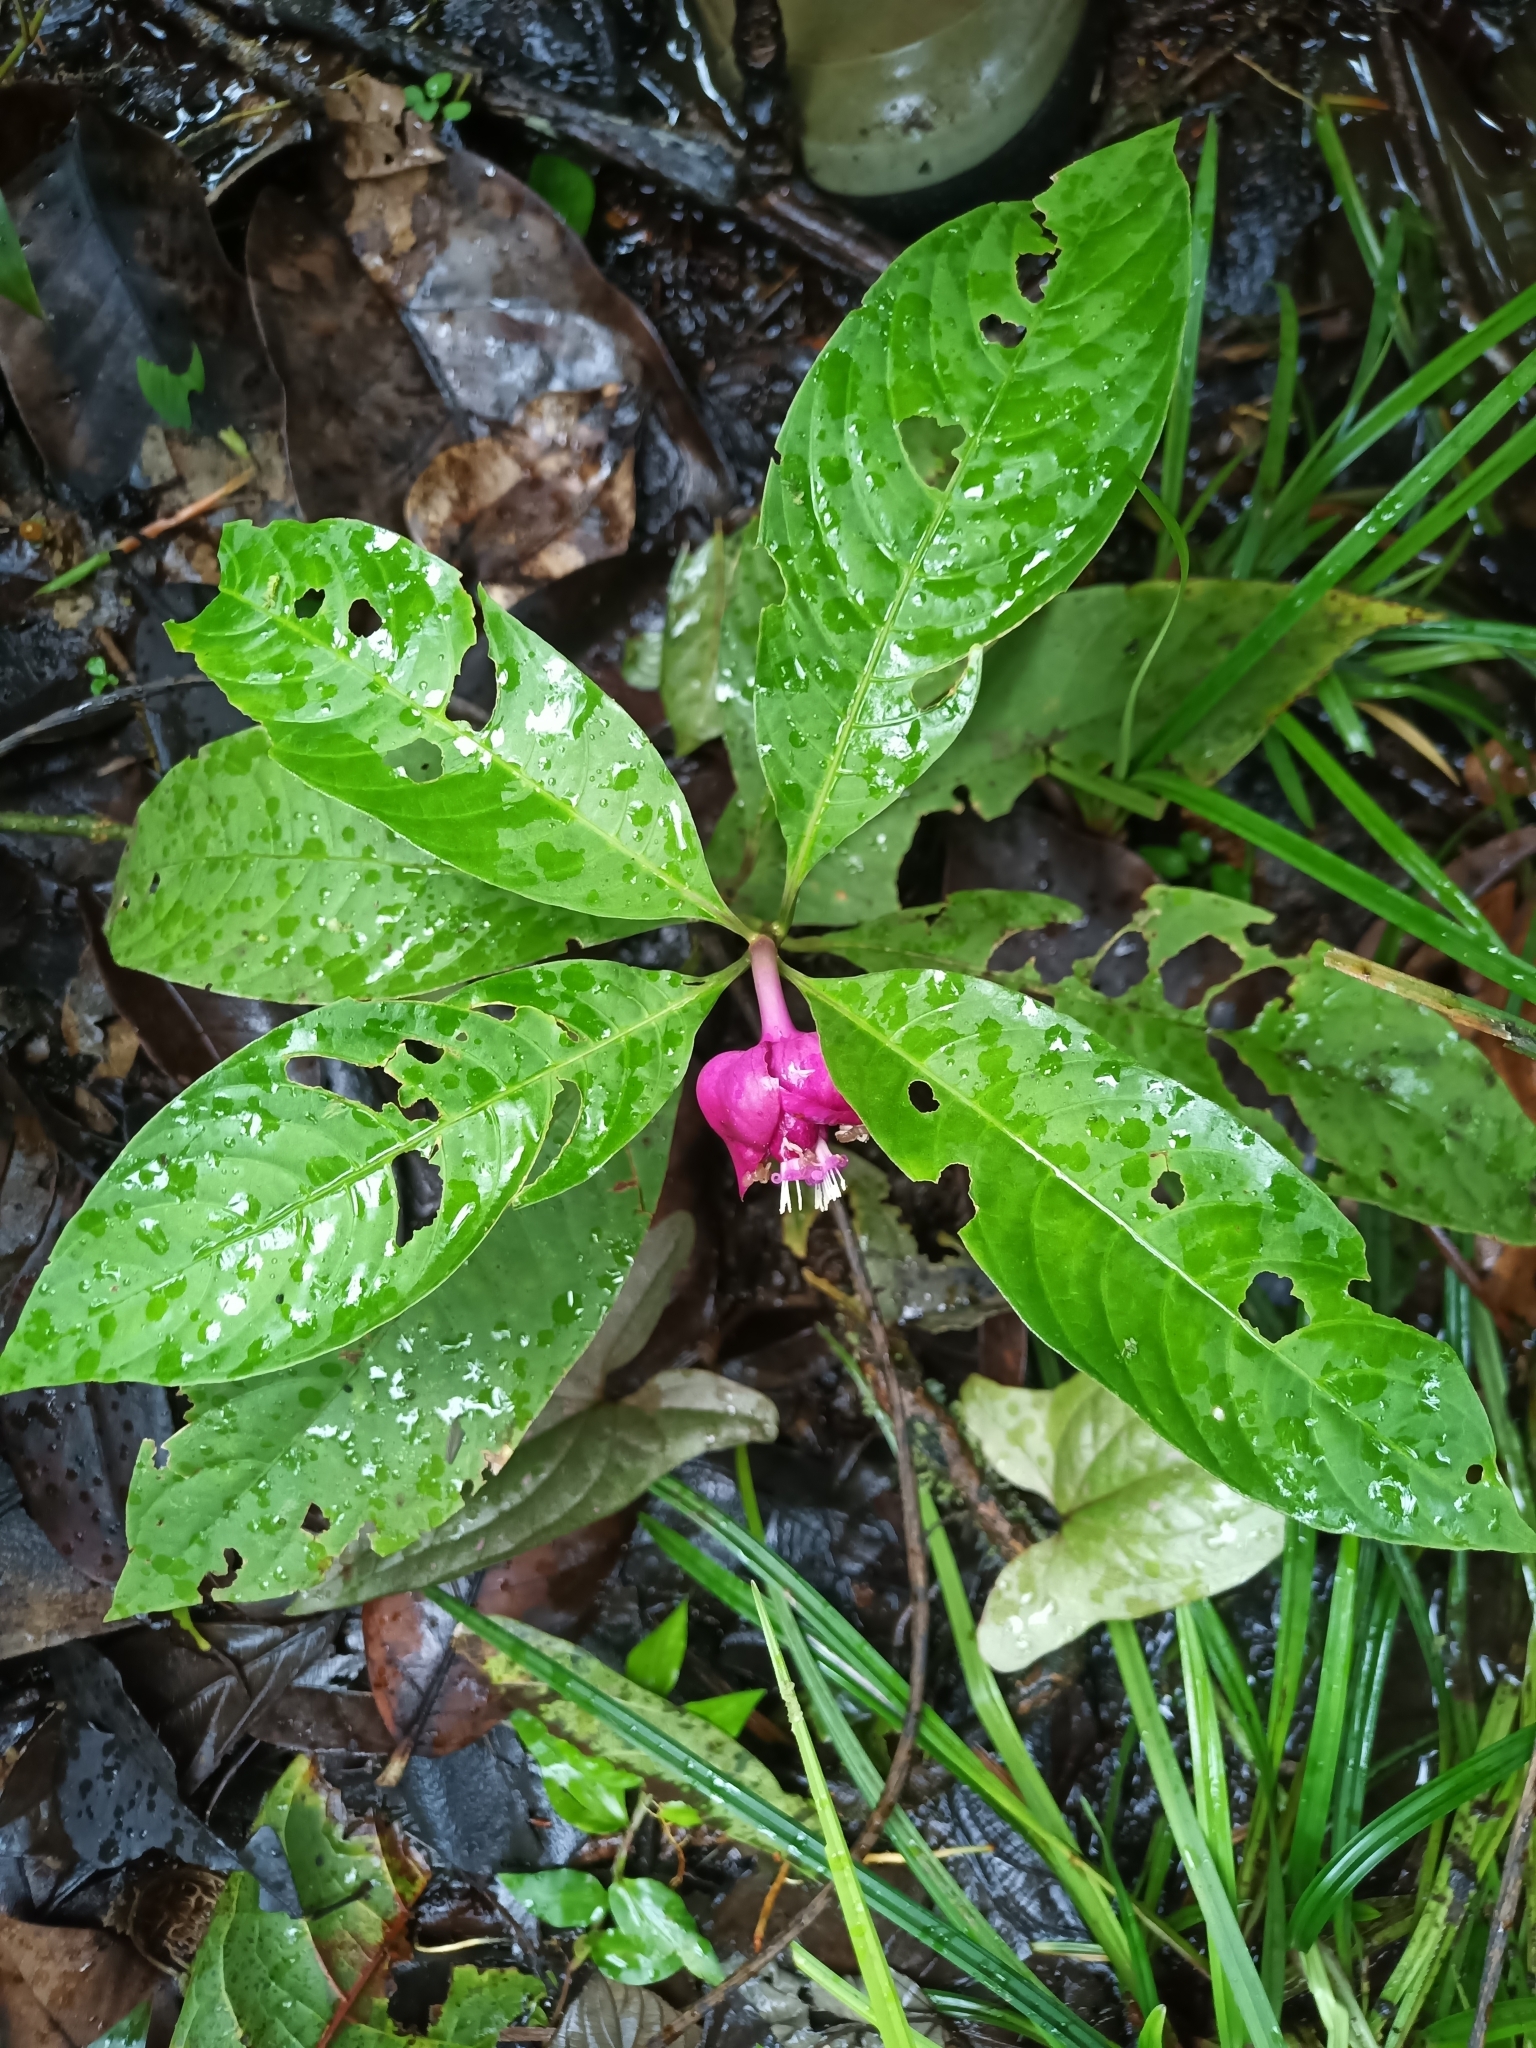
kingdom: Plantae
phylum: Tracheophyta
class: Magnoliopsida
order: Gentianales
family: Rubiaceae
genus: Palicourea
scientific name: Palicourea colorata
